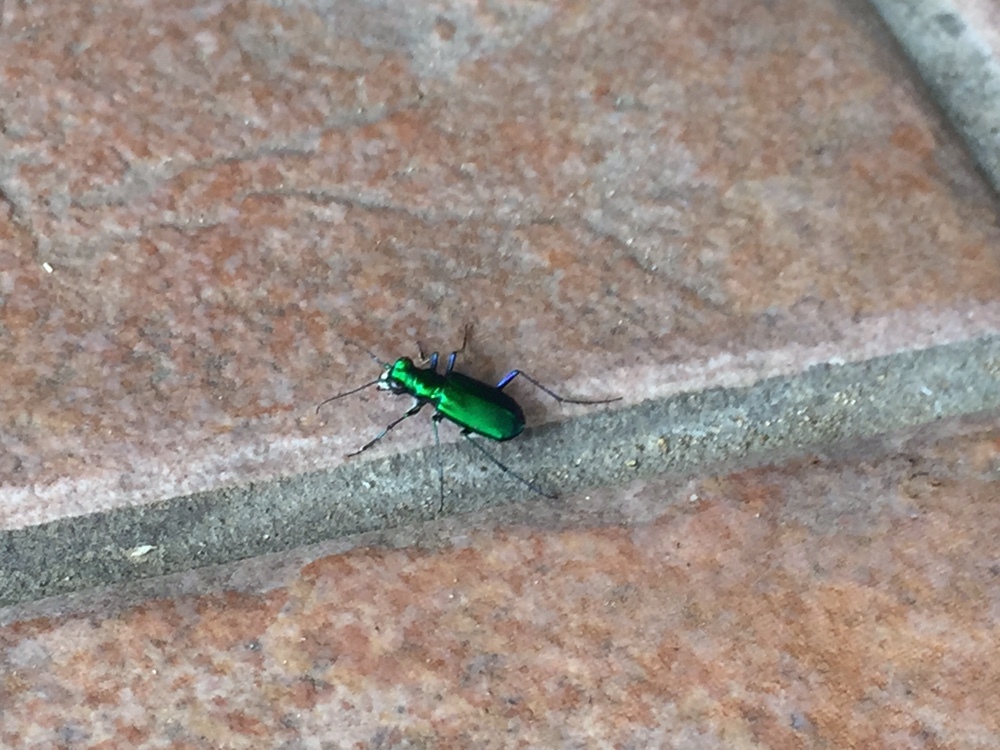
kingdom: Animalia
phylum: Arthropoda
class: Insecta
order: Coleoptera
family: Carabidae
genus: Cicindela
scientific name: Cicindela sexguttata
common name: Six-spotted tiger beetle
